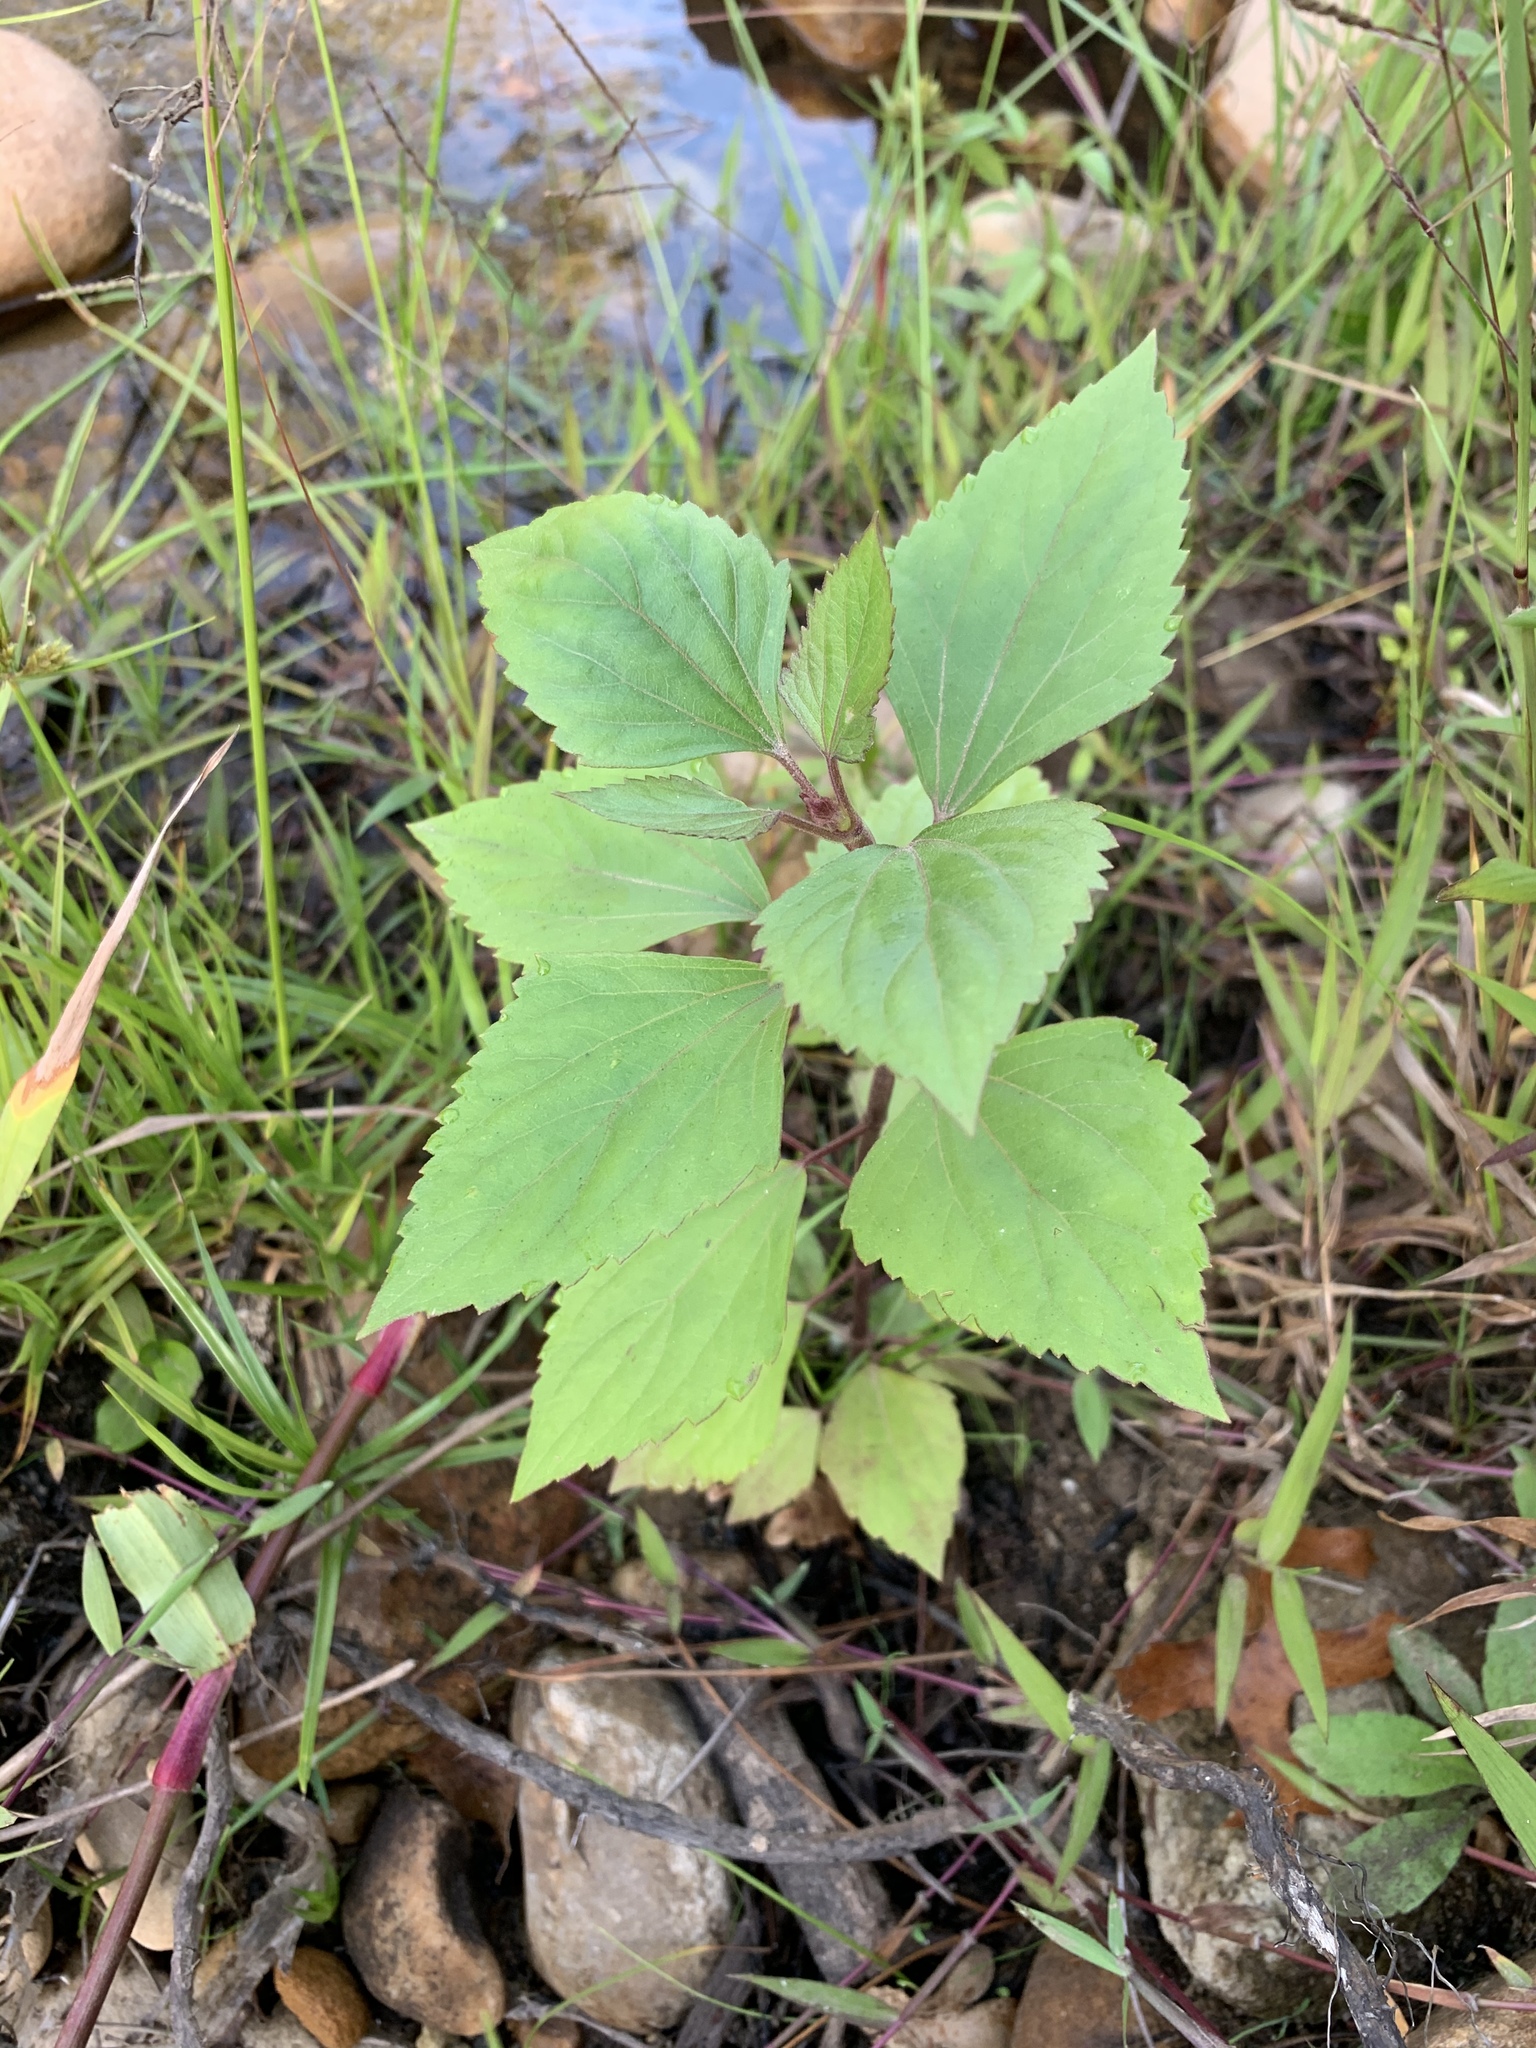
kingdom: Plantae
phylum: Tracheophyta
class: Magnoliopsida
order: Asterales
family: Asteraceae
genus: Ageratina
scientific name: Ageratina adenophora
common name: Sticky snakeroot
